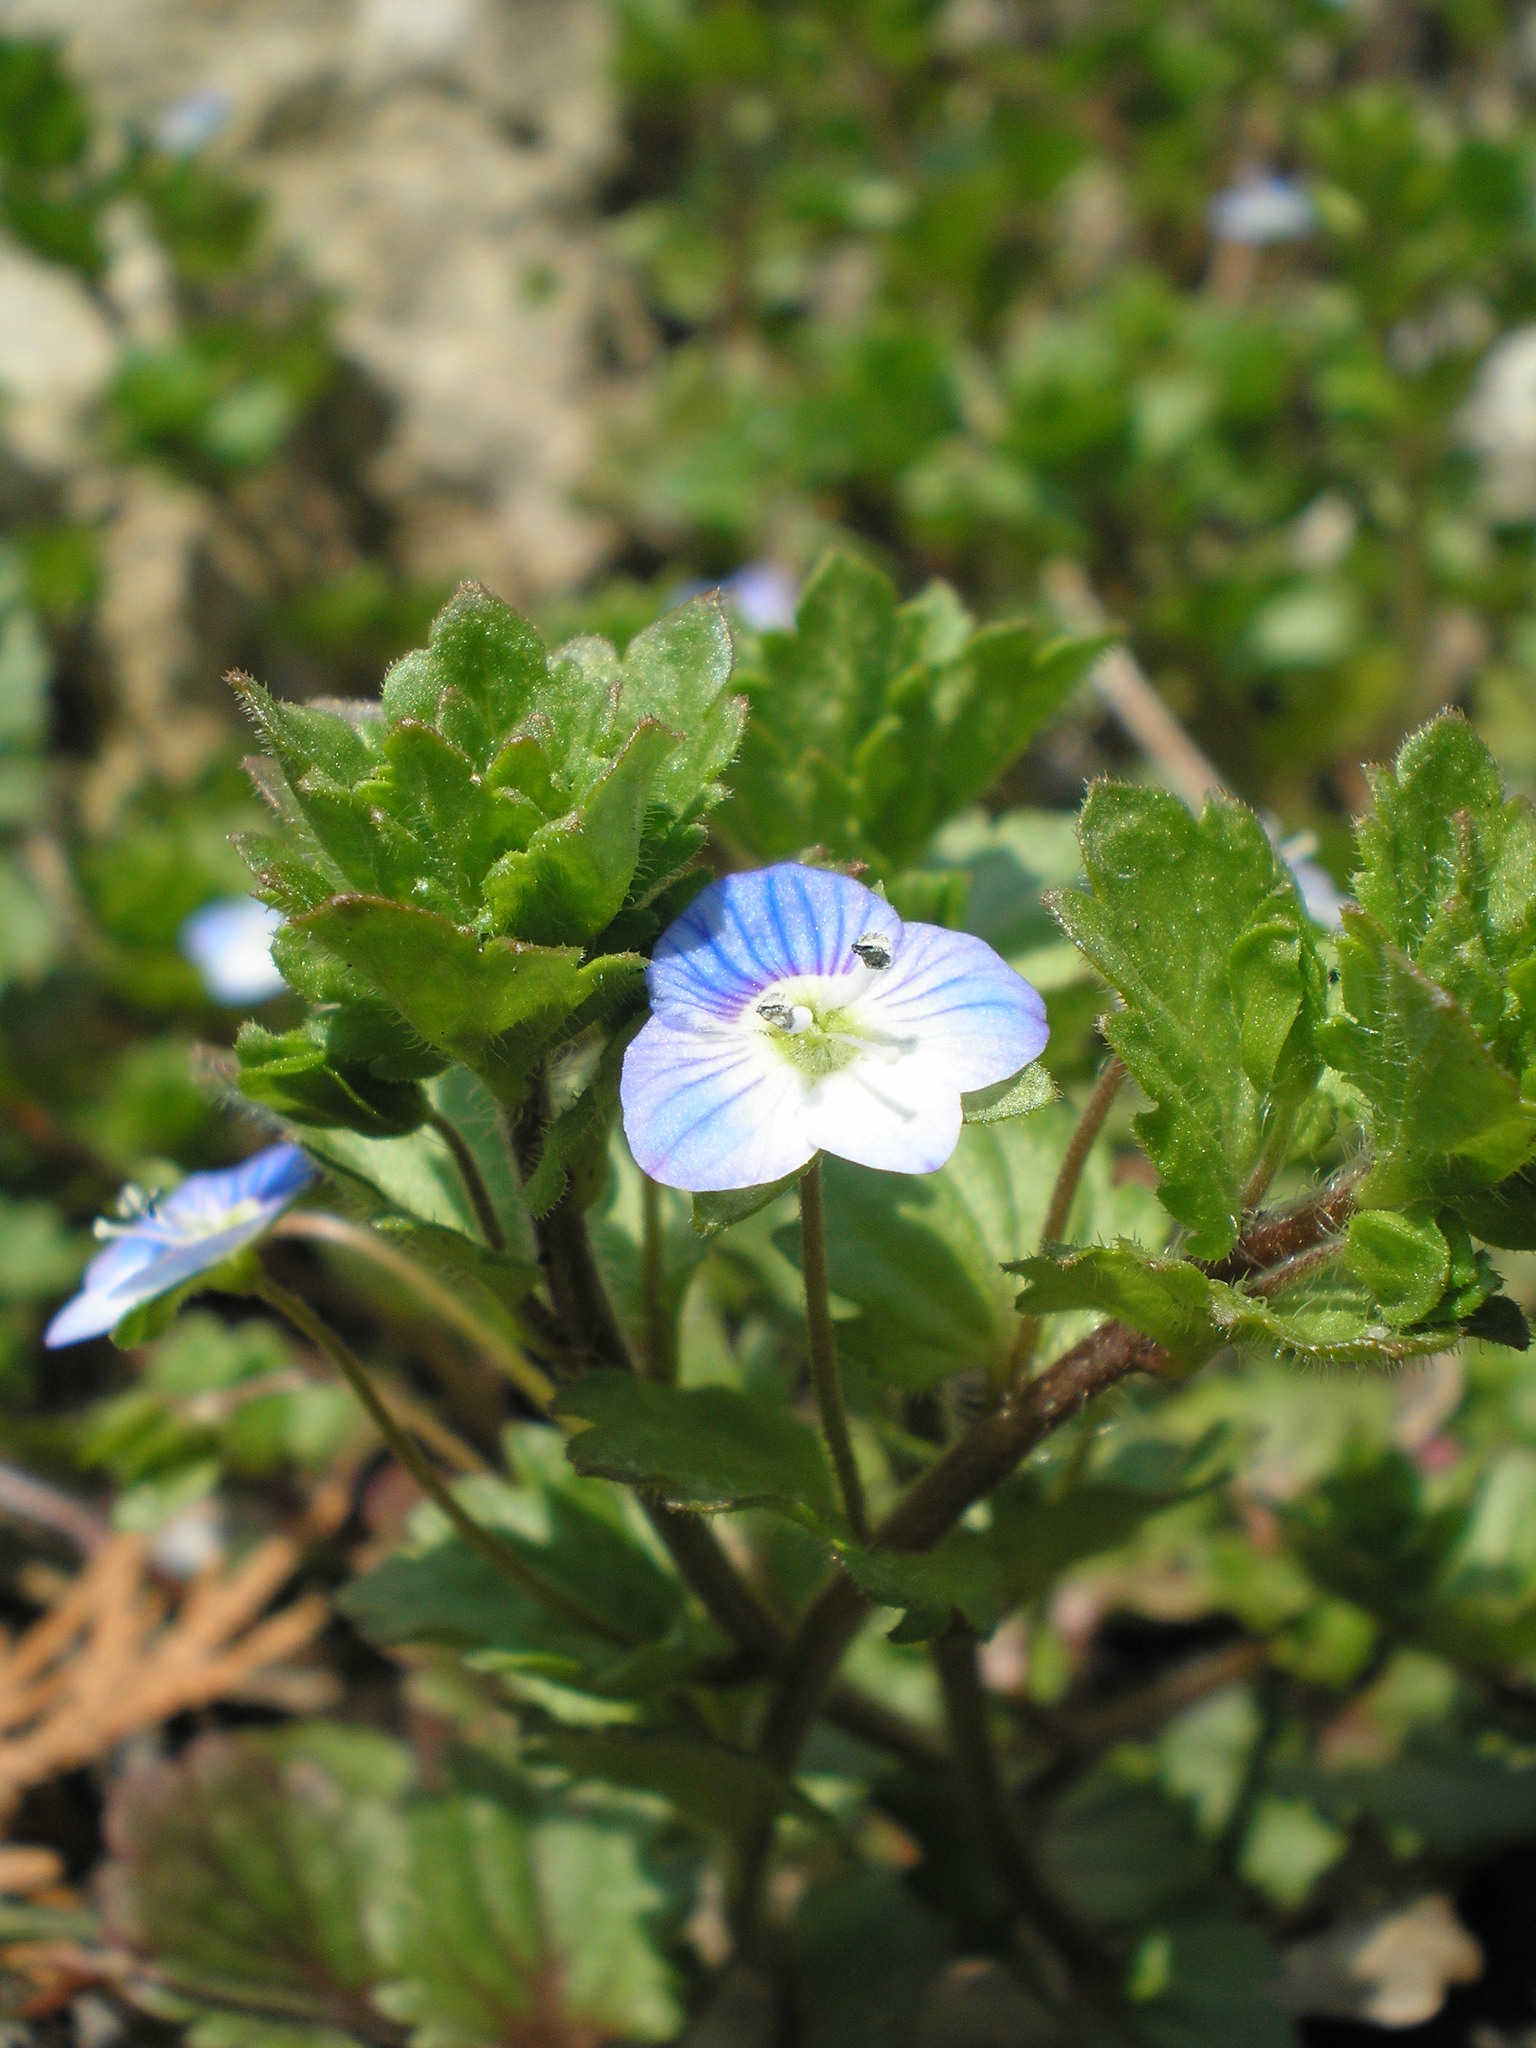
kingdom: Plantae
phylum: Tracheophyta
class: Magnoliopsida
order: Lamiales
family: Plantaginaceae
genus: Veronica
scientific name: Veronica persica
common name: Common field-speedwell
